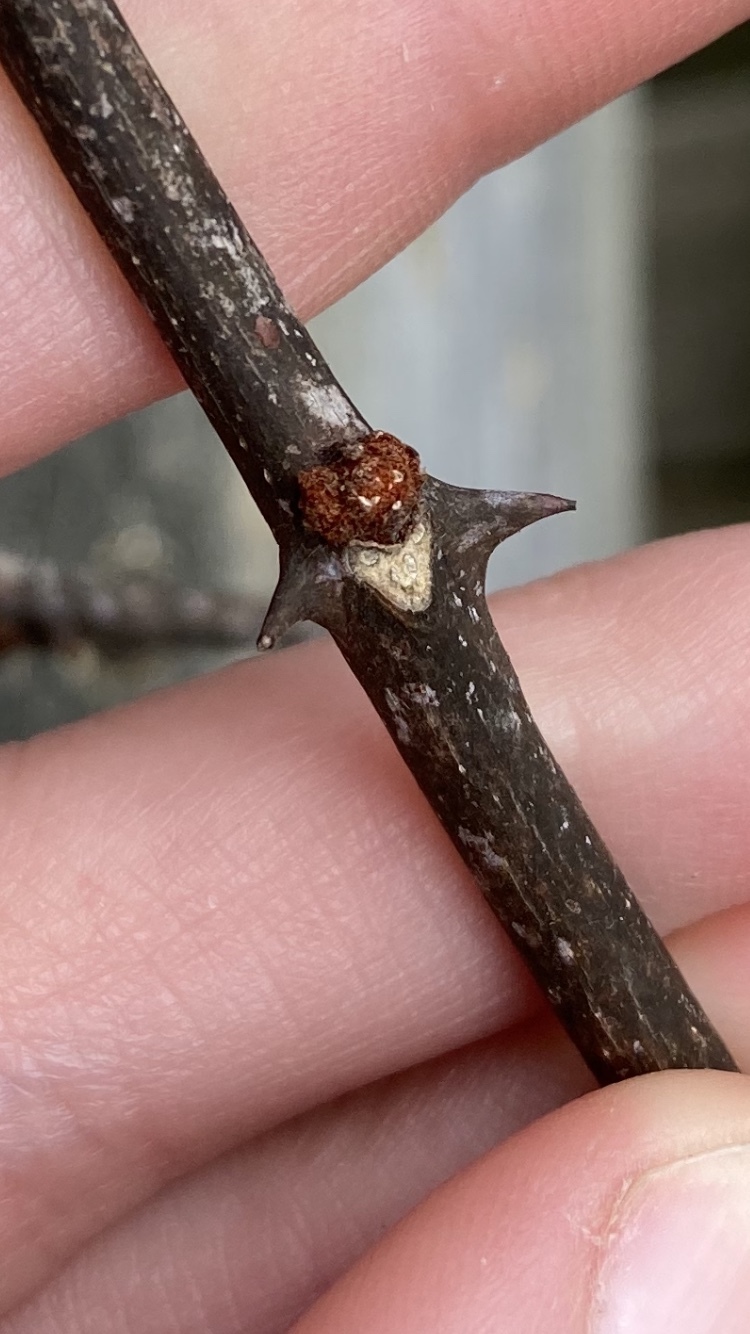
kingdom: Plantae
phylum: Tracheophyta
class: Magnoliopsida
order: Sapindales
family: Rutaceae
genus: Zanthoxylum
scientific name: Zanthoxylum americanum
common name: Northern prickly-ash
